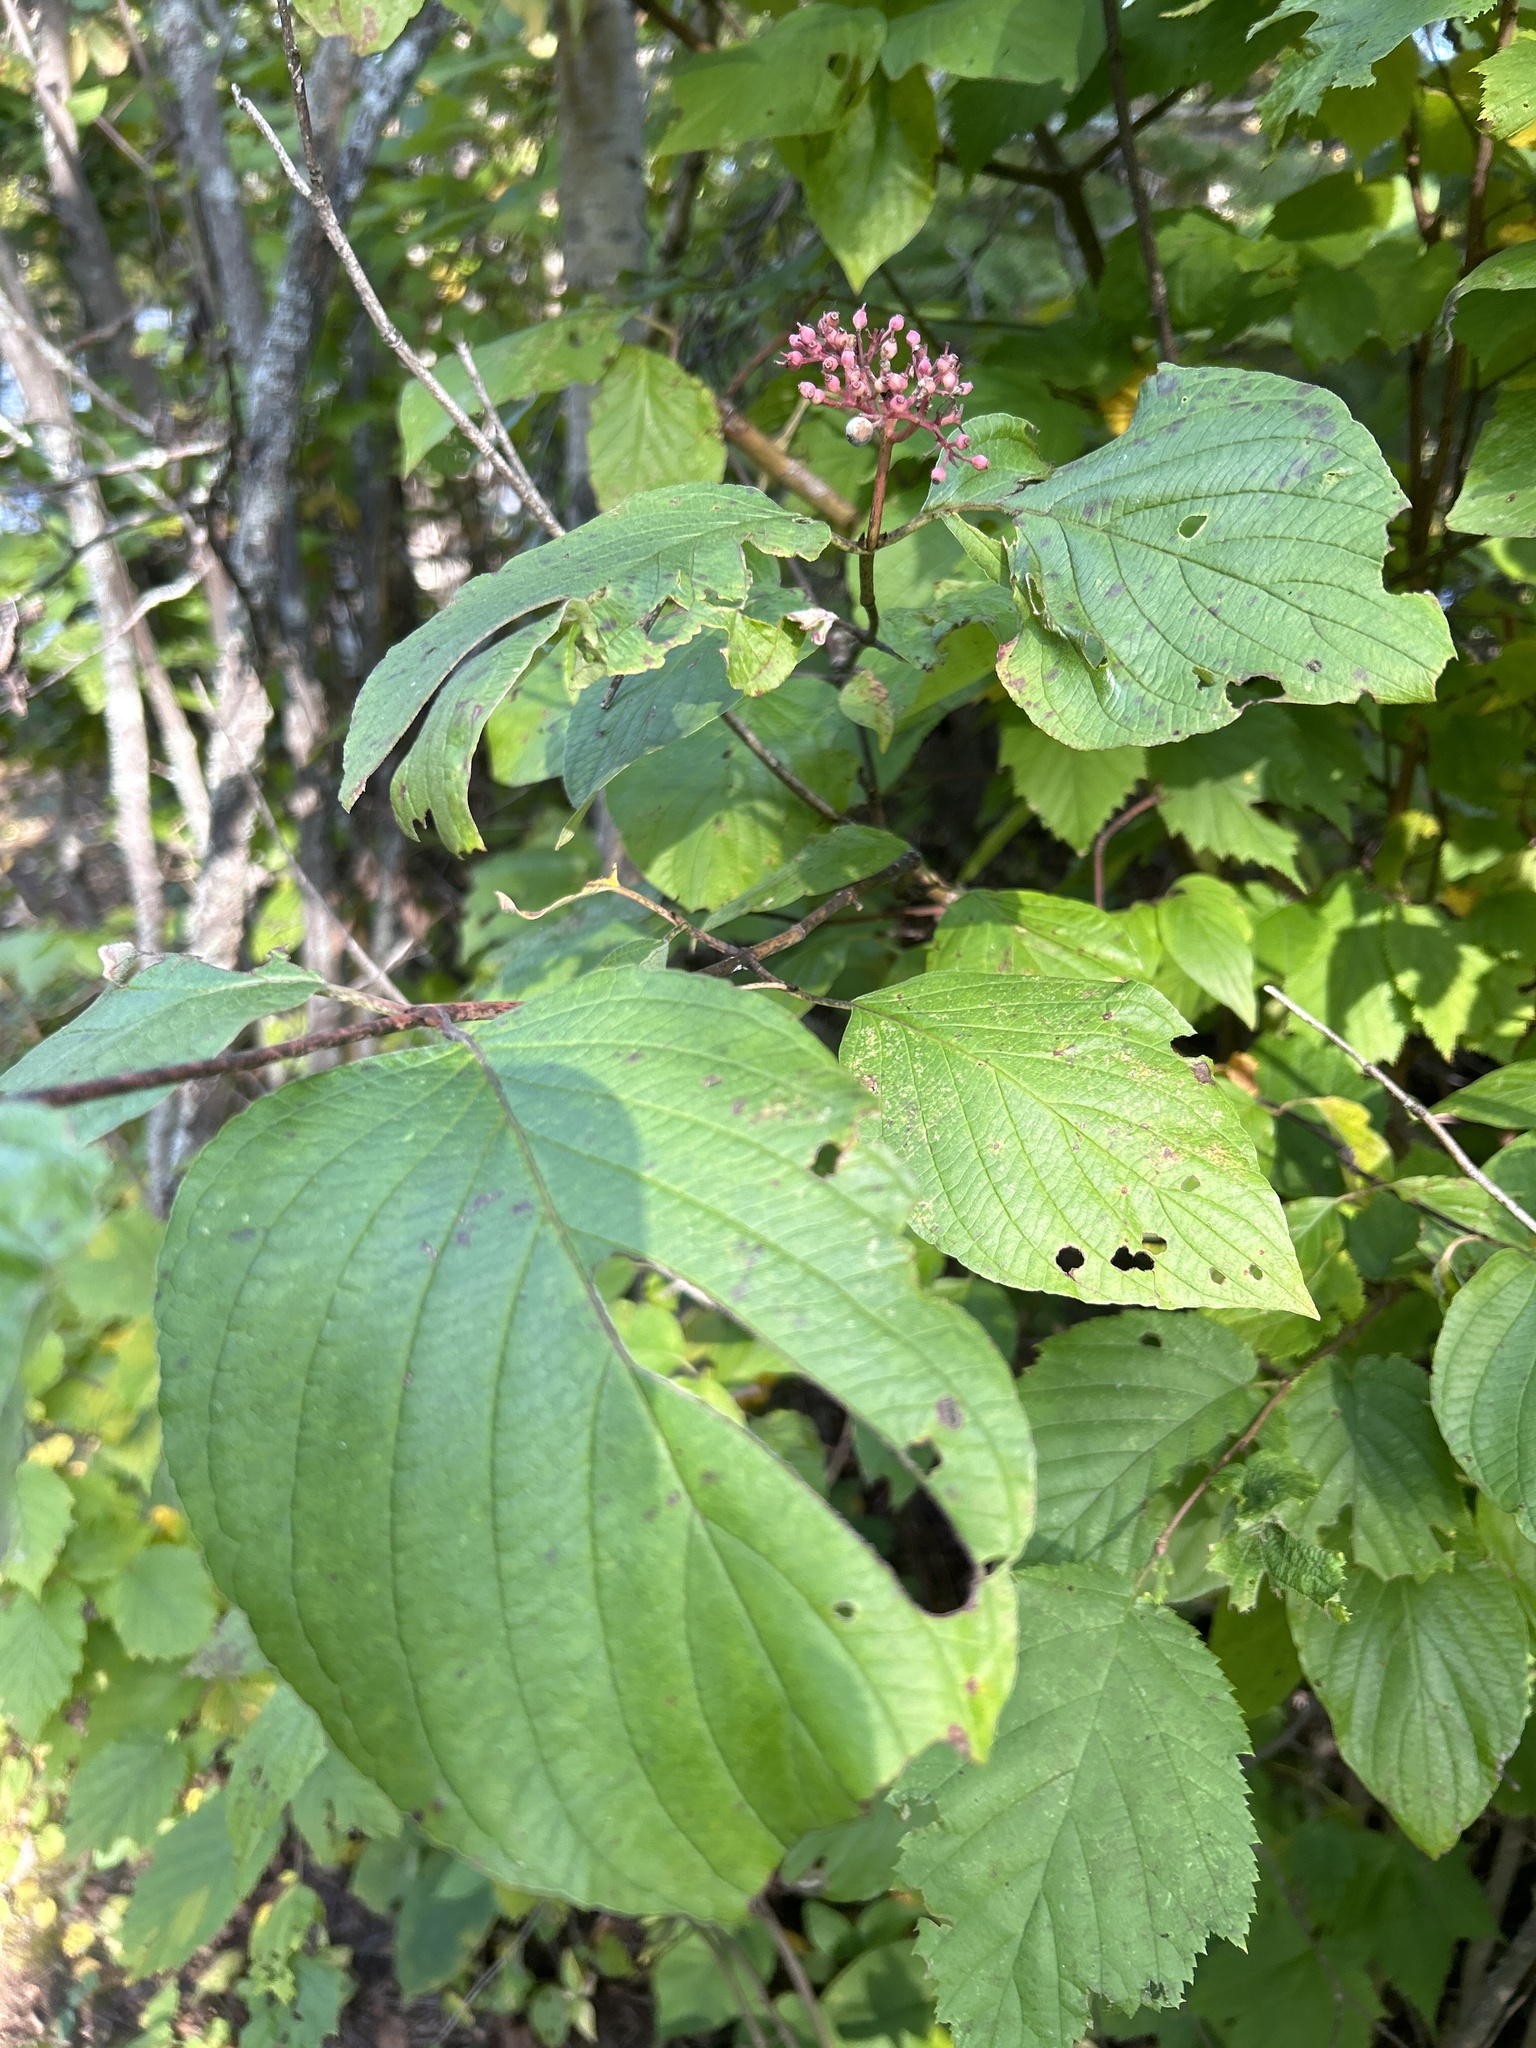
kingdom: Plantae
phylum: Tracheophyta
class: Magnoliopsida
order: Cornales
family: Cornaceae
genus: Cornus
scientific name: Cornus rugosa
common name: Round-leaf dogwood
